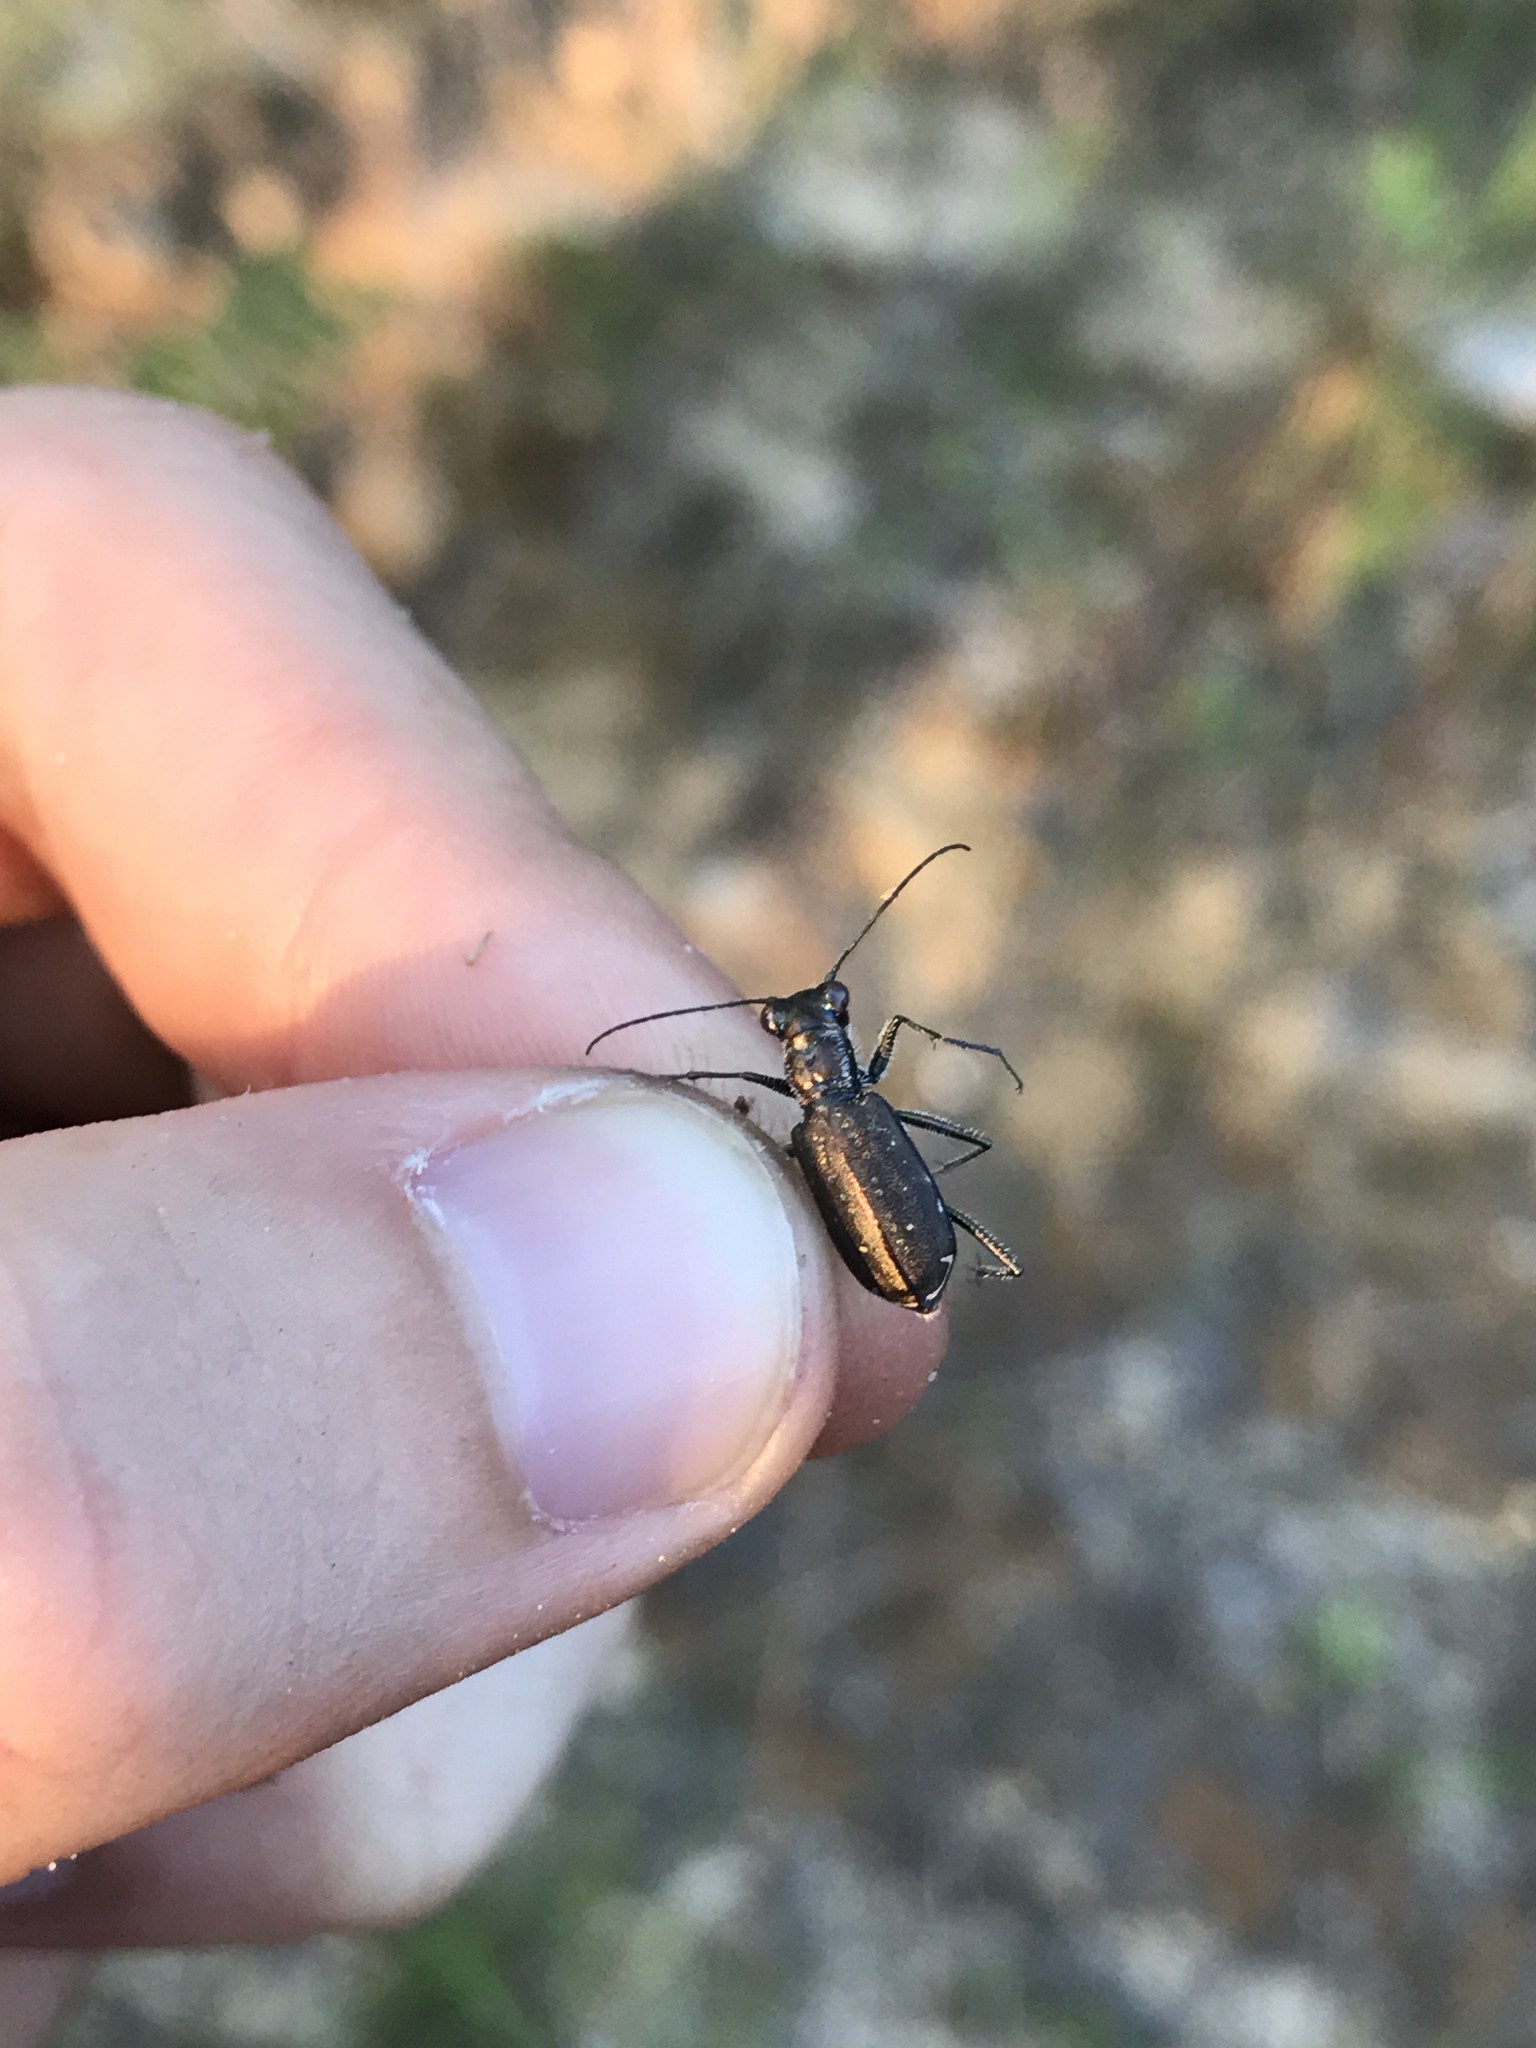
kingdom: Animalia
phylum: Arthropoda
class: Insecta
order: Coleoptera
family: Carabidae
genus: Cicindela
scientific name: Cicindela punctulata
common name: Punctured tiger beetle
